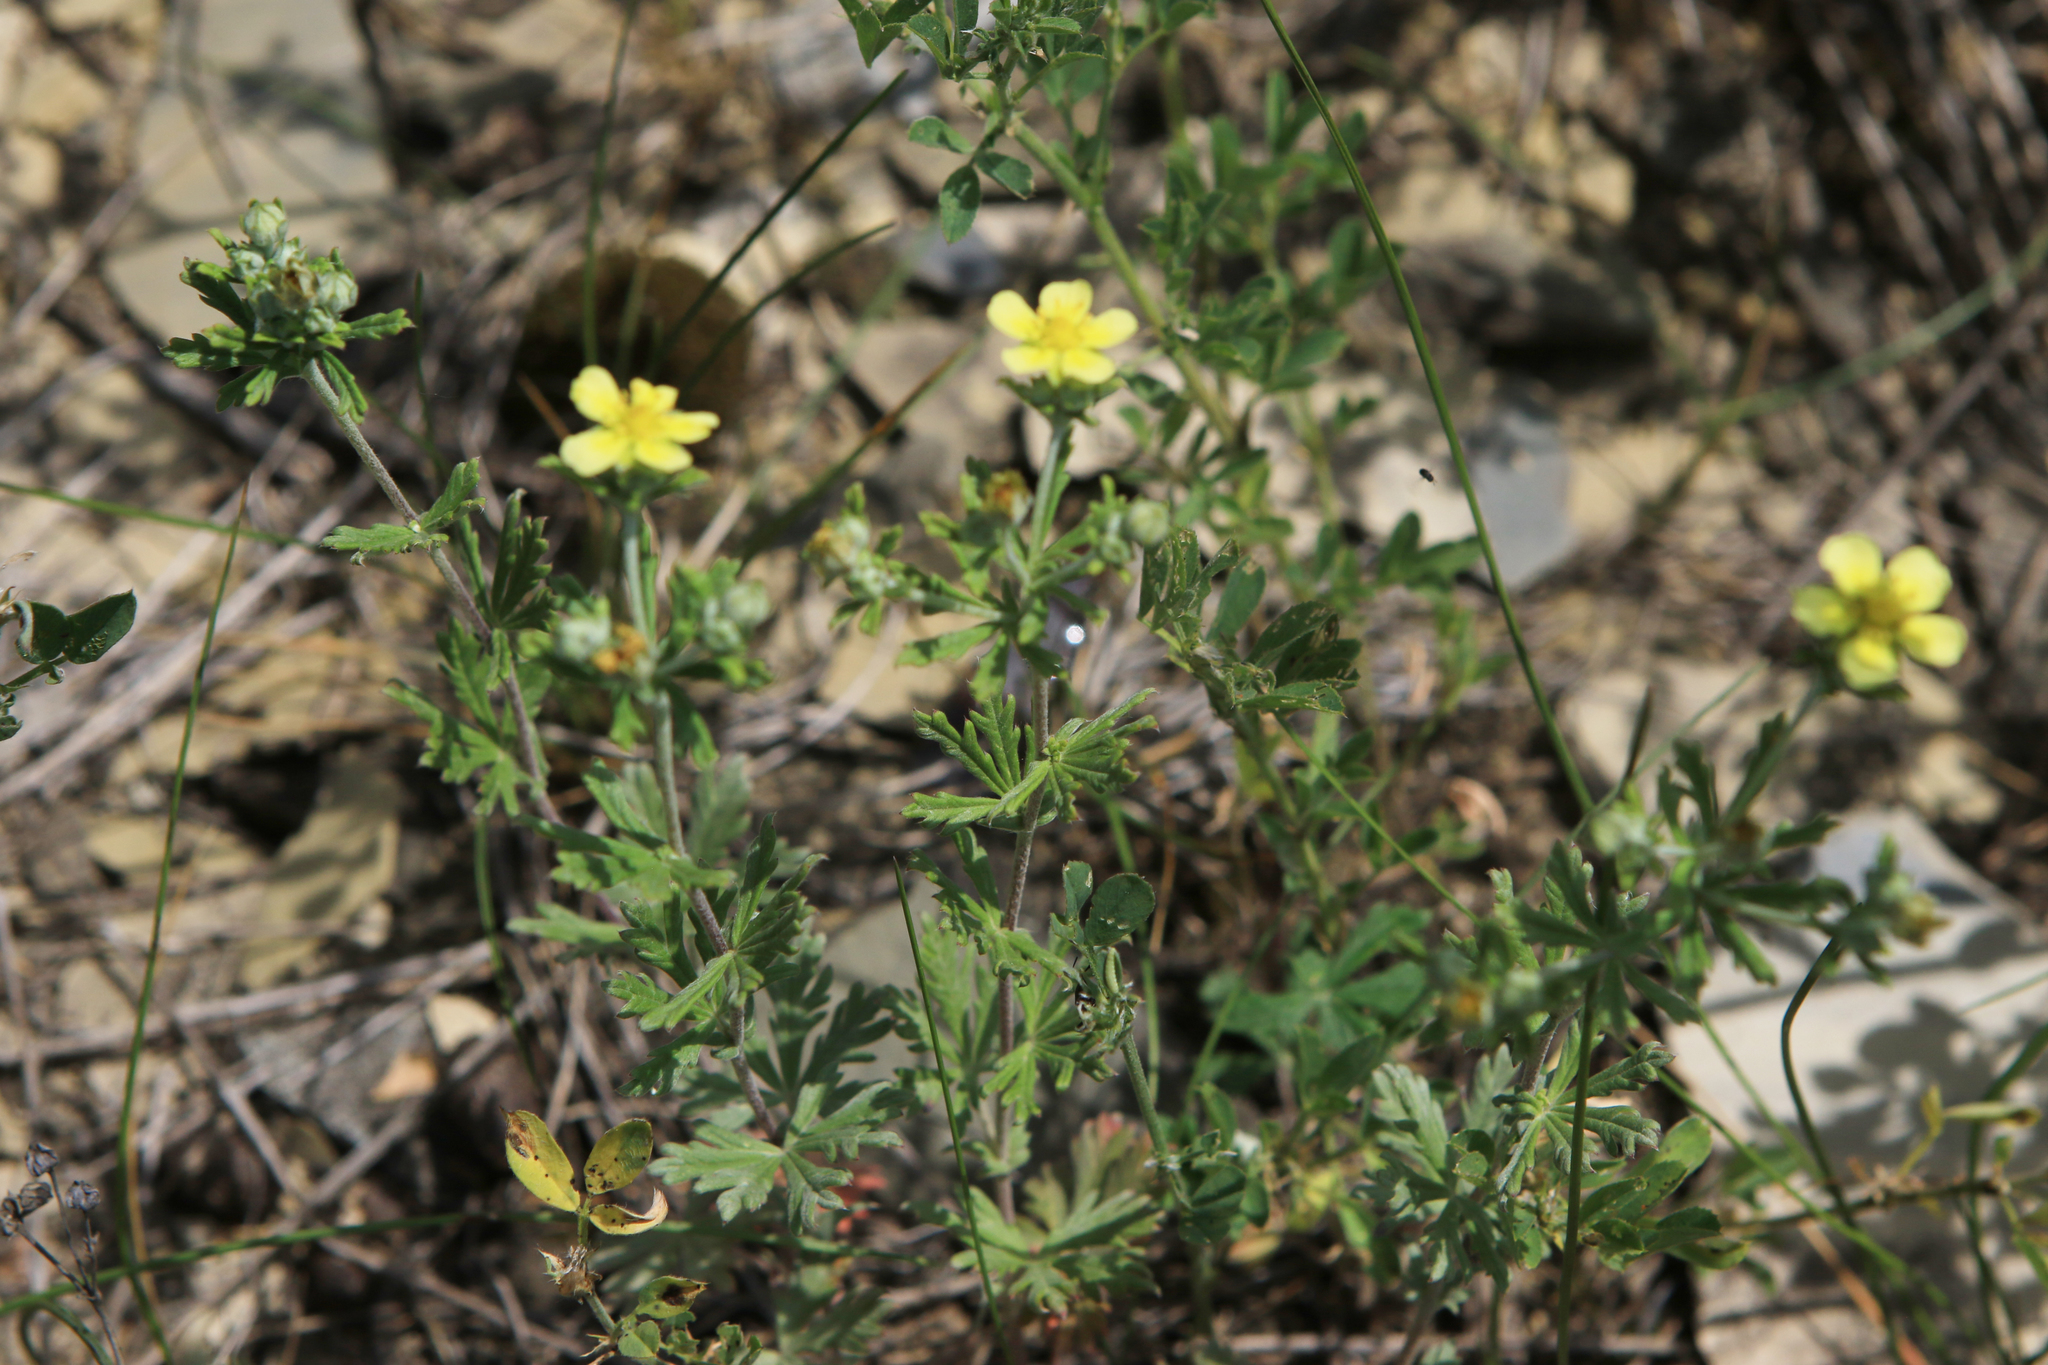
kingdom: Plantae
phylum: Tracheophyta
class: Magnoliopsida
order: Rosales
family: Rosaceae
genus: Potentilla
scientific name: Potentilla argentea
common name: Hoary cinquefoil
